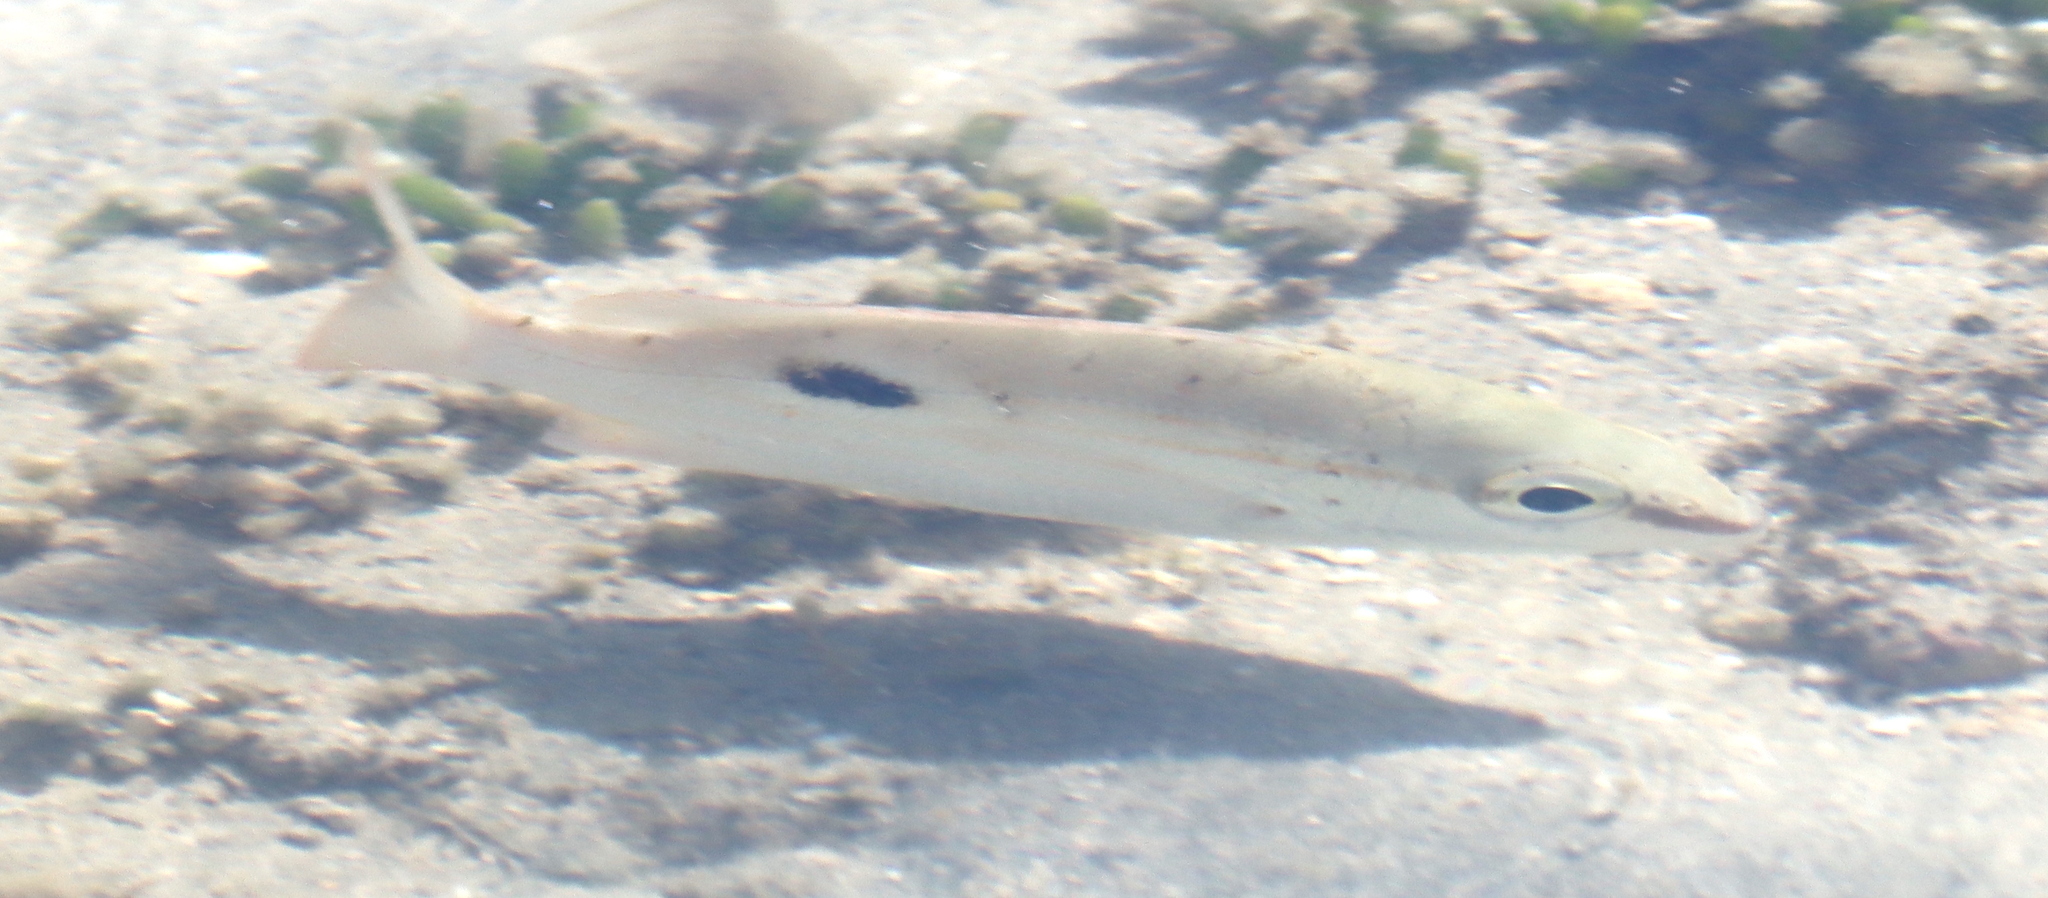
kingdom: Animalia
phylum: Chordata
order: Perciformes
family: Lutjanidae
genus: Lutjanus
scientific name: Lutjanus fulviflamma
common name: Blackspot snapper
